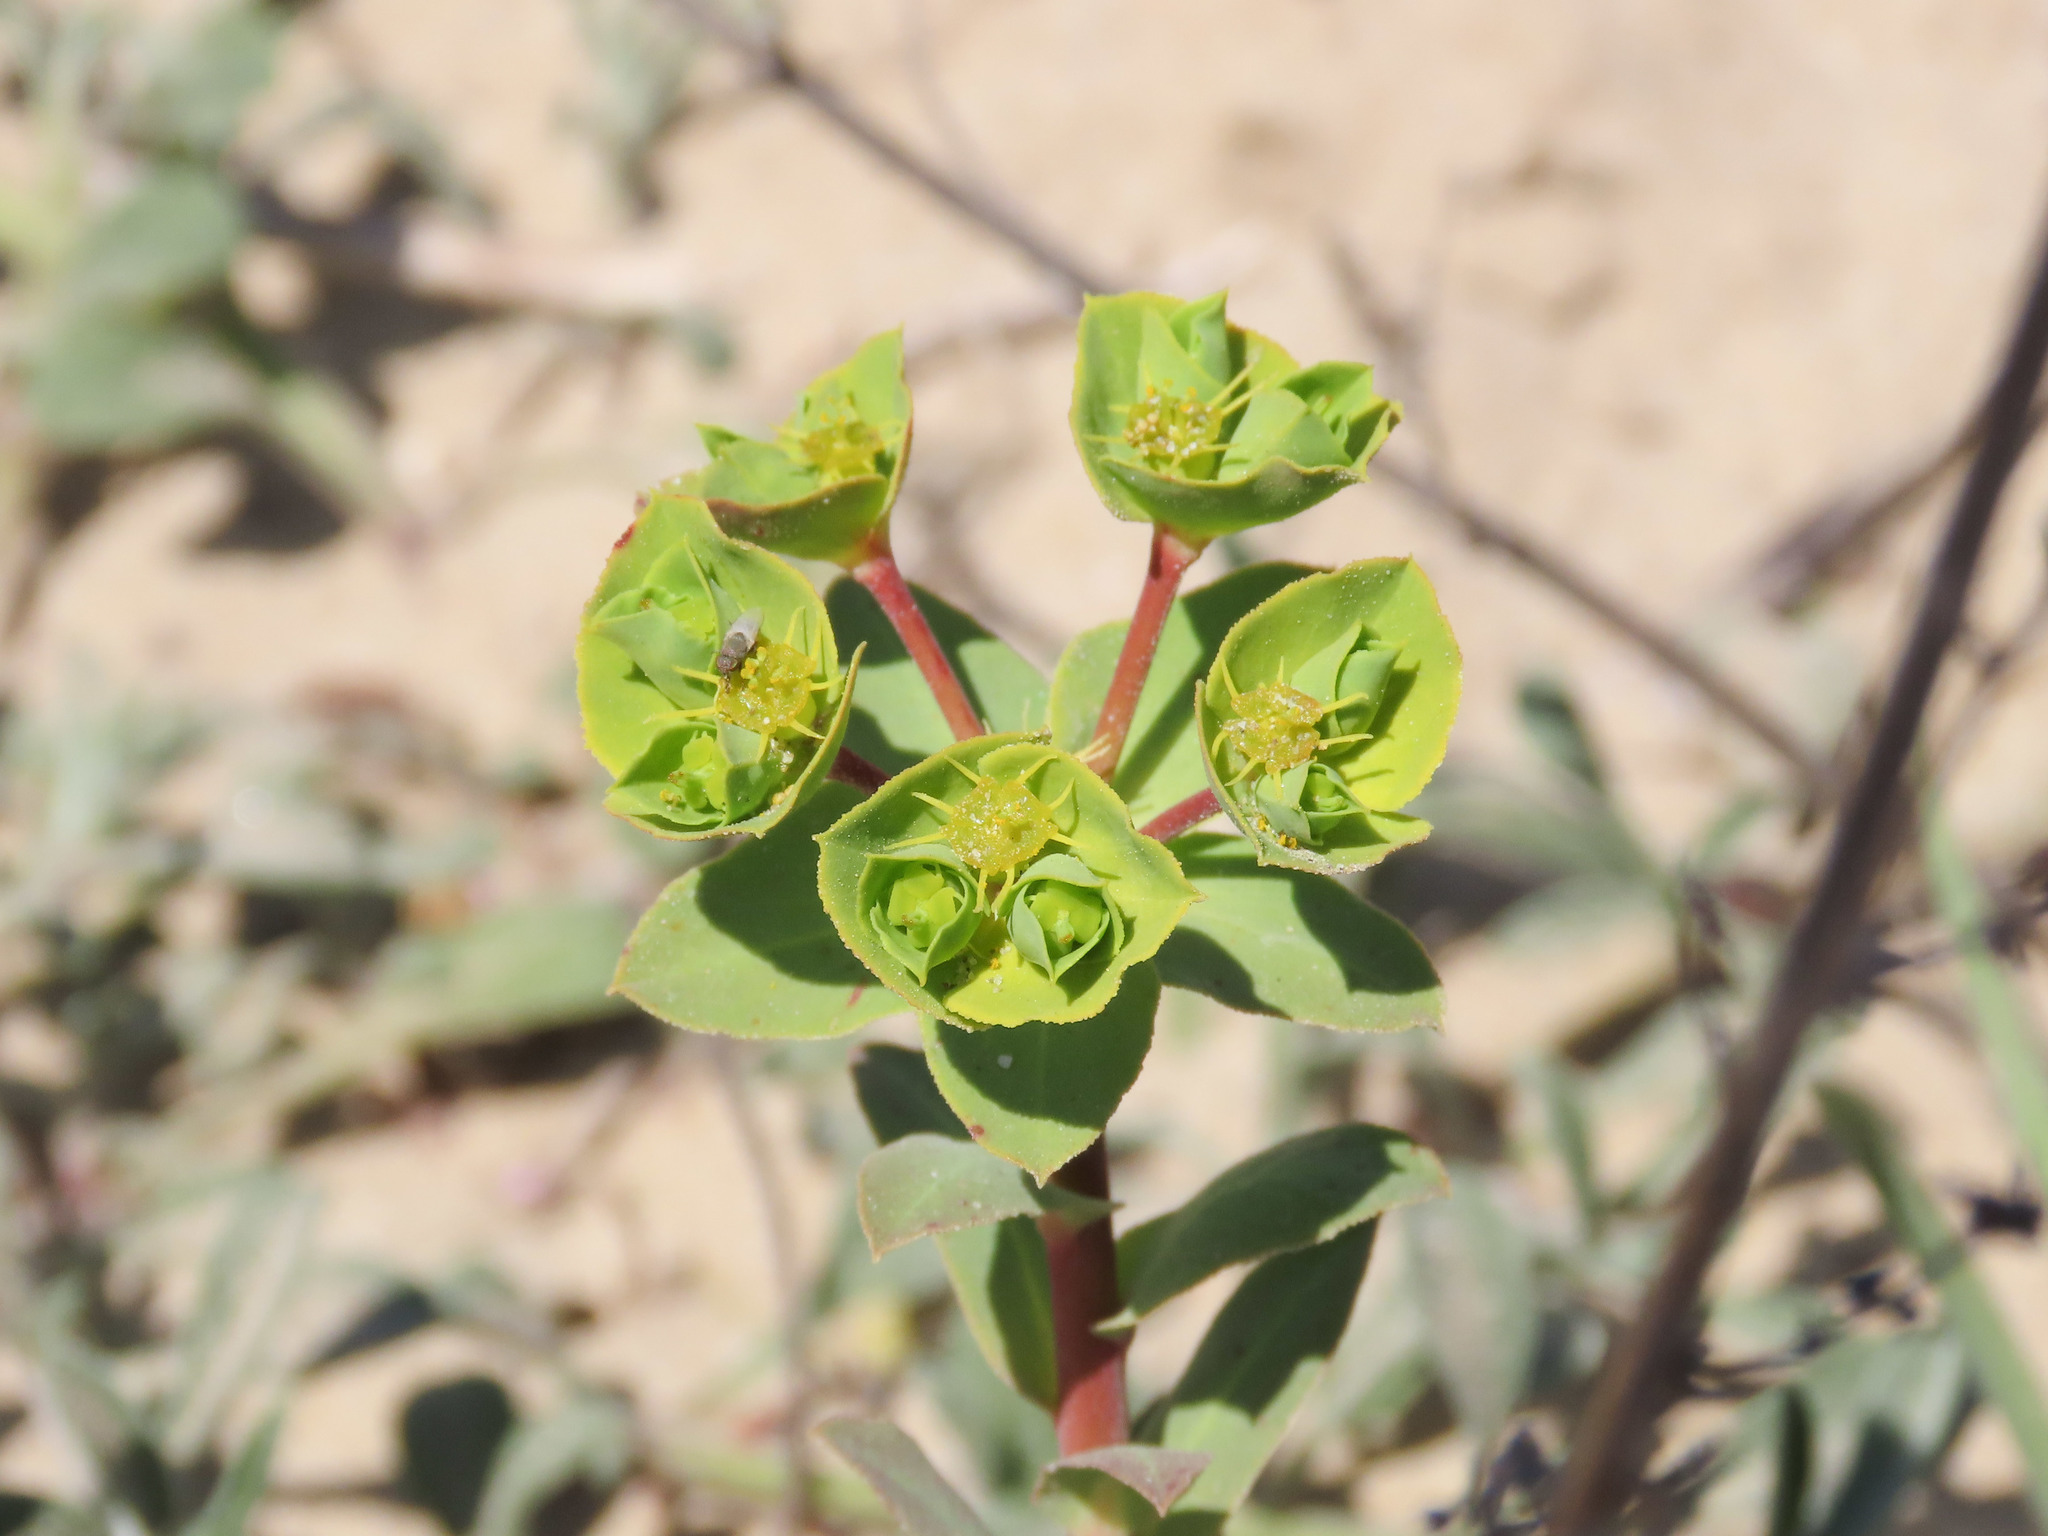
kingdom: Plantae
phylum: Tracheophyta
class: Magnoliopsida
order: Malpighiales
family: Euphorbiaceae
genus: Euphorbia
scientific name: Euphorbia terracina
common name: Geraldton carnation weed
